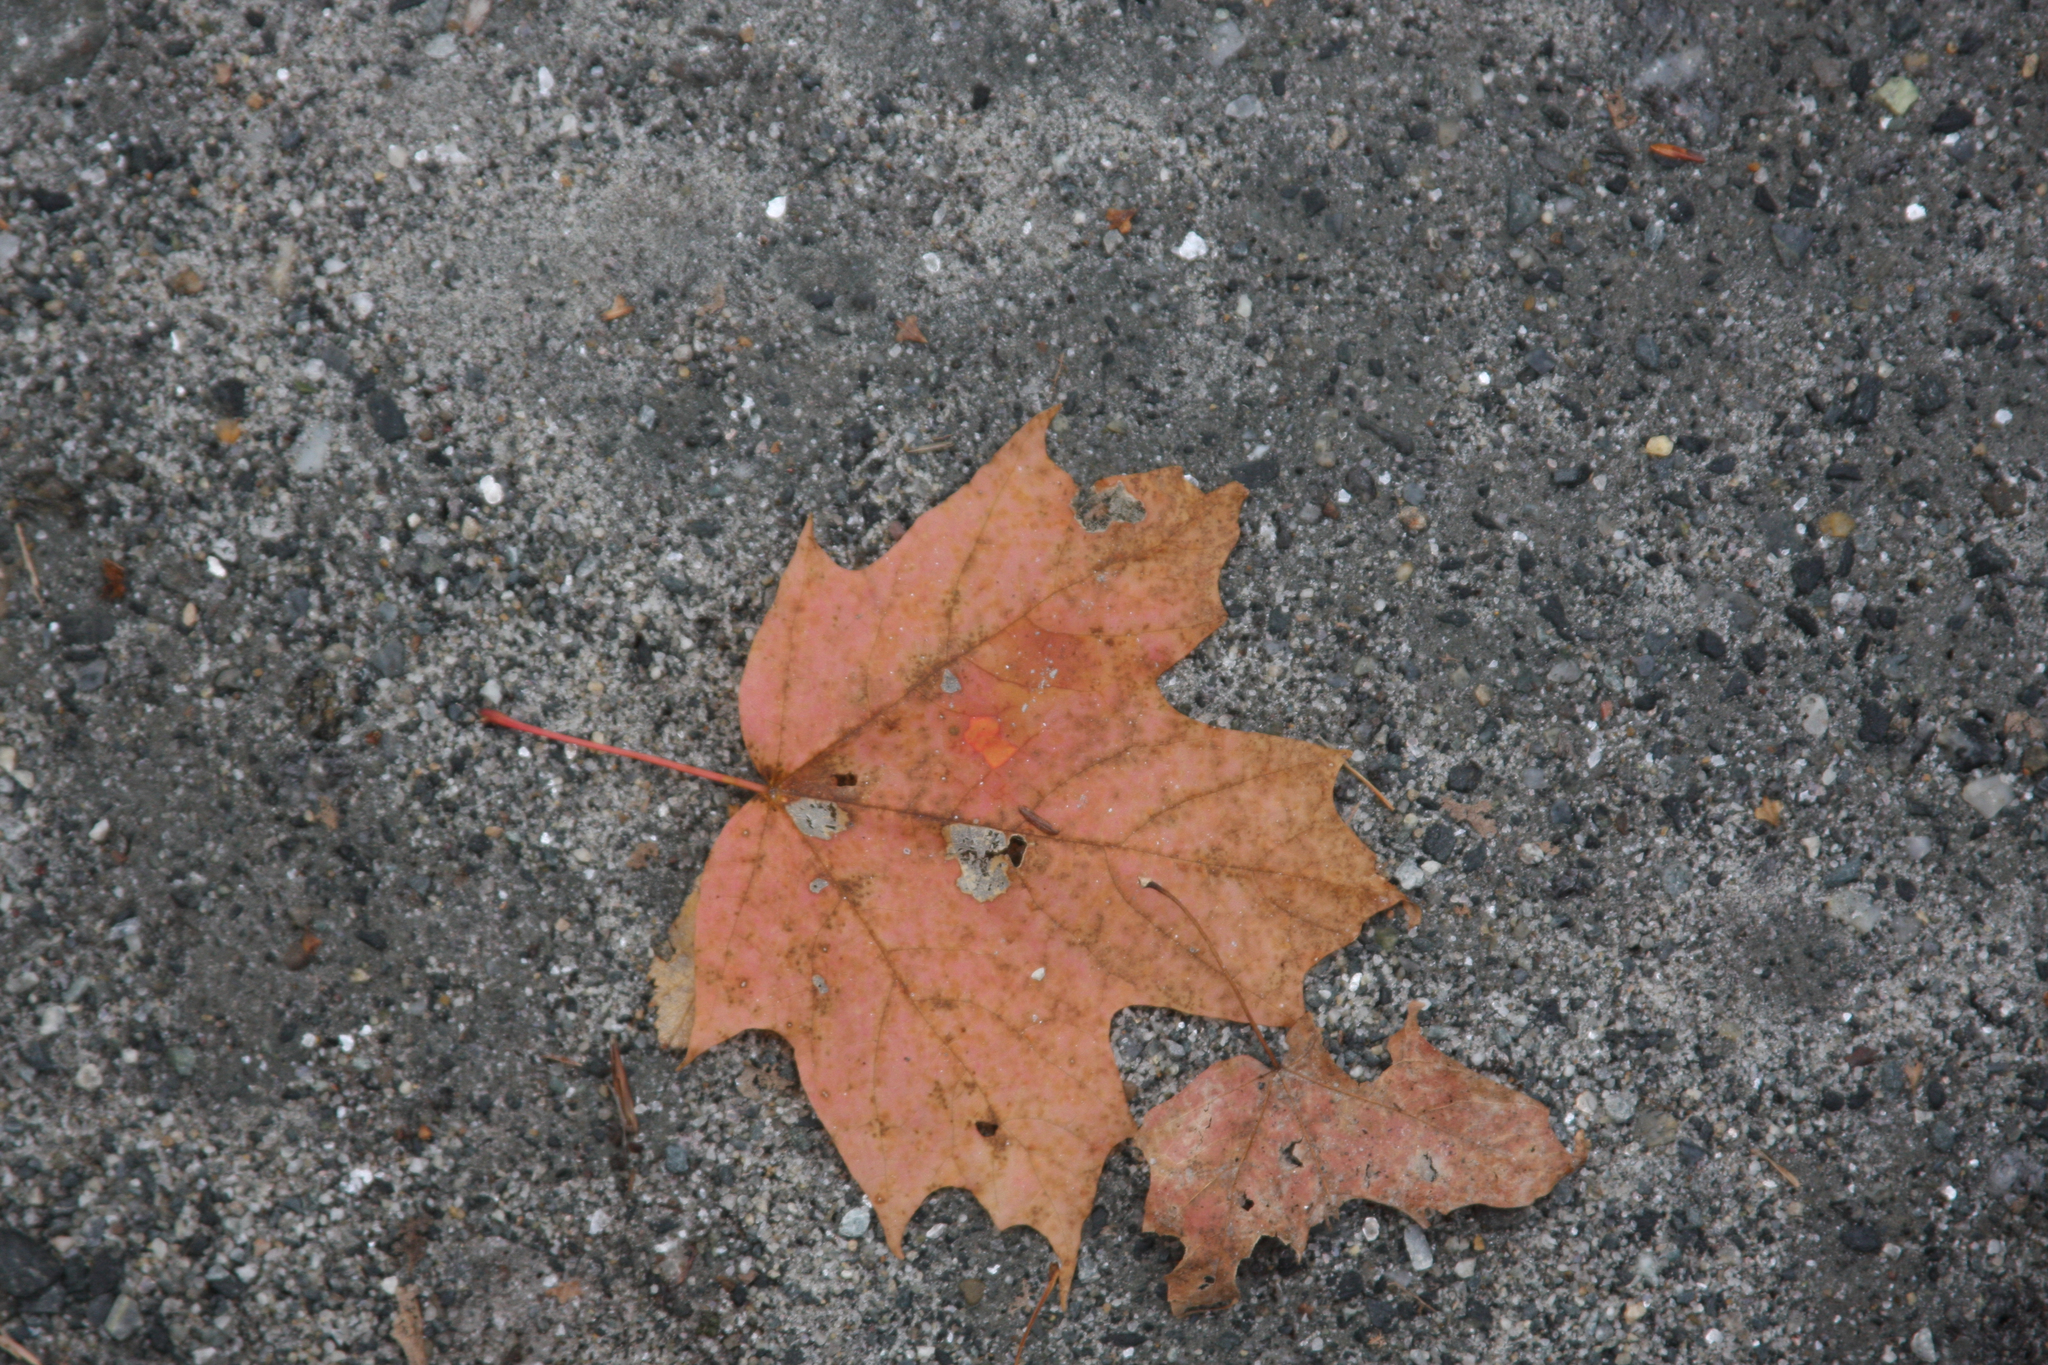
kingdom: Plantae
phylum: Tracheophyta
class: Magnoliopsida
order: Sapindales
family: Sapindaceae
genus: Acer
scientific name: Acer saccharum
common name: Sugar maple
